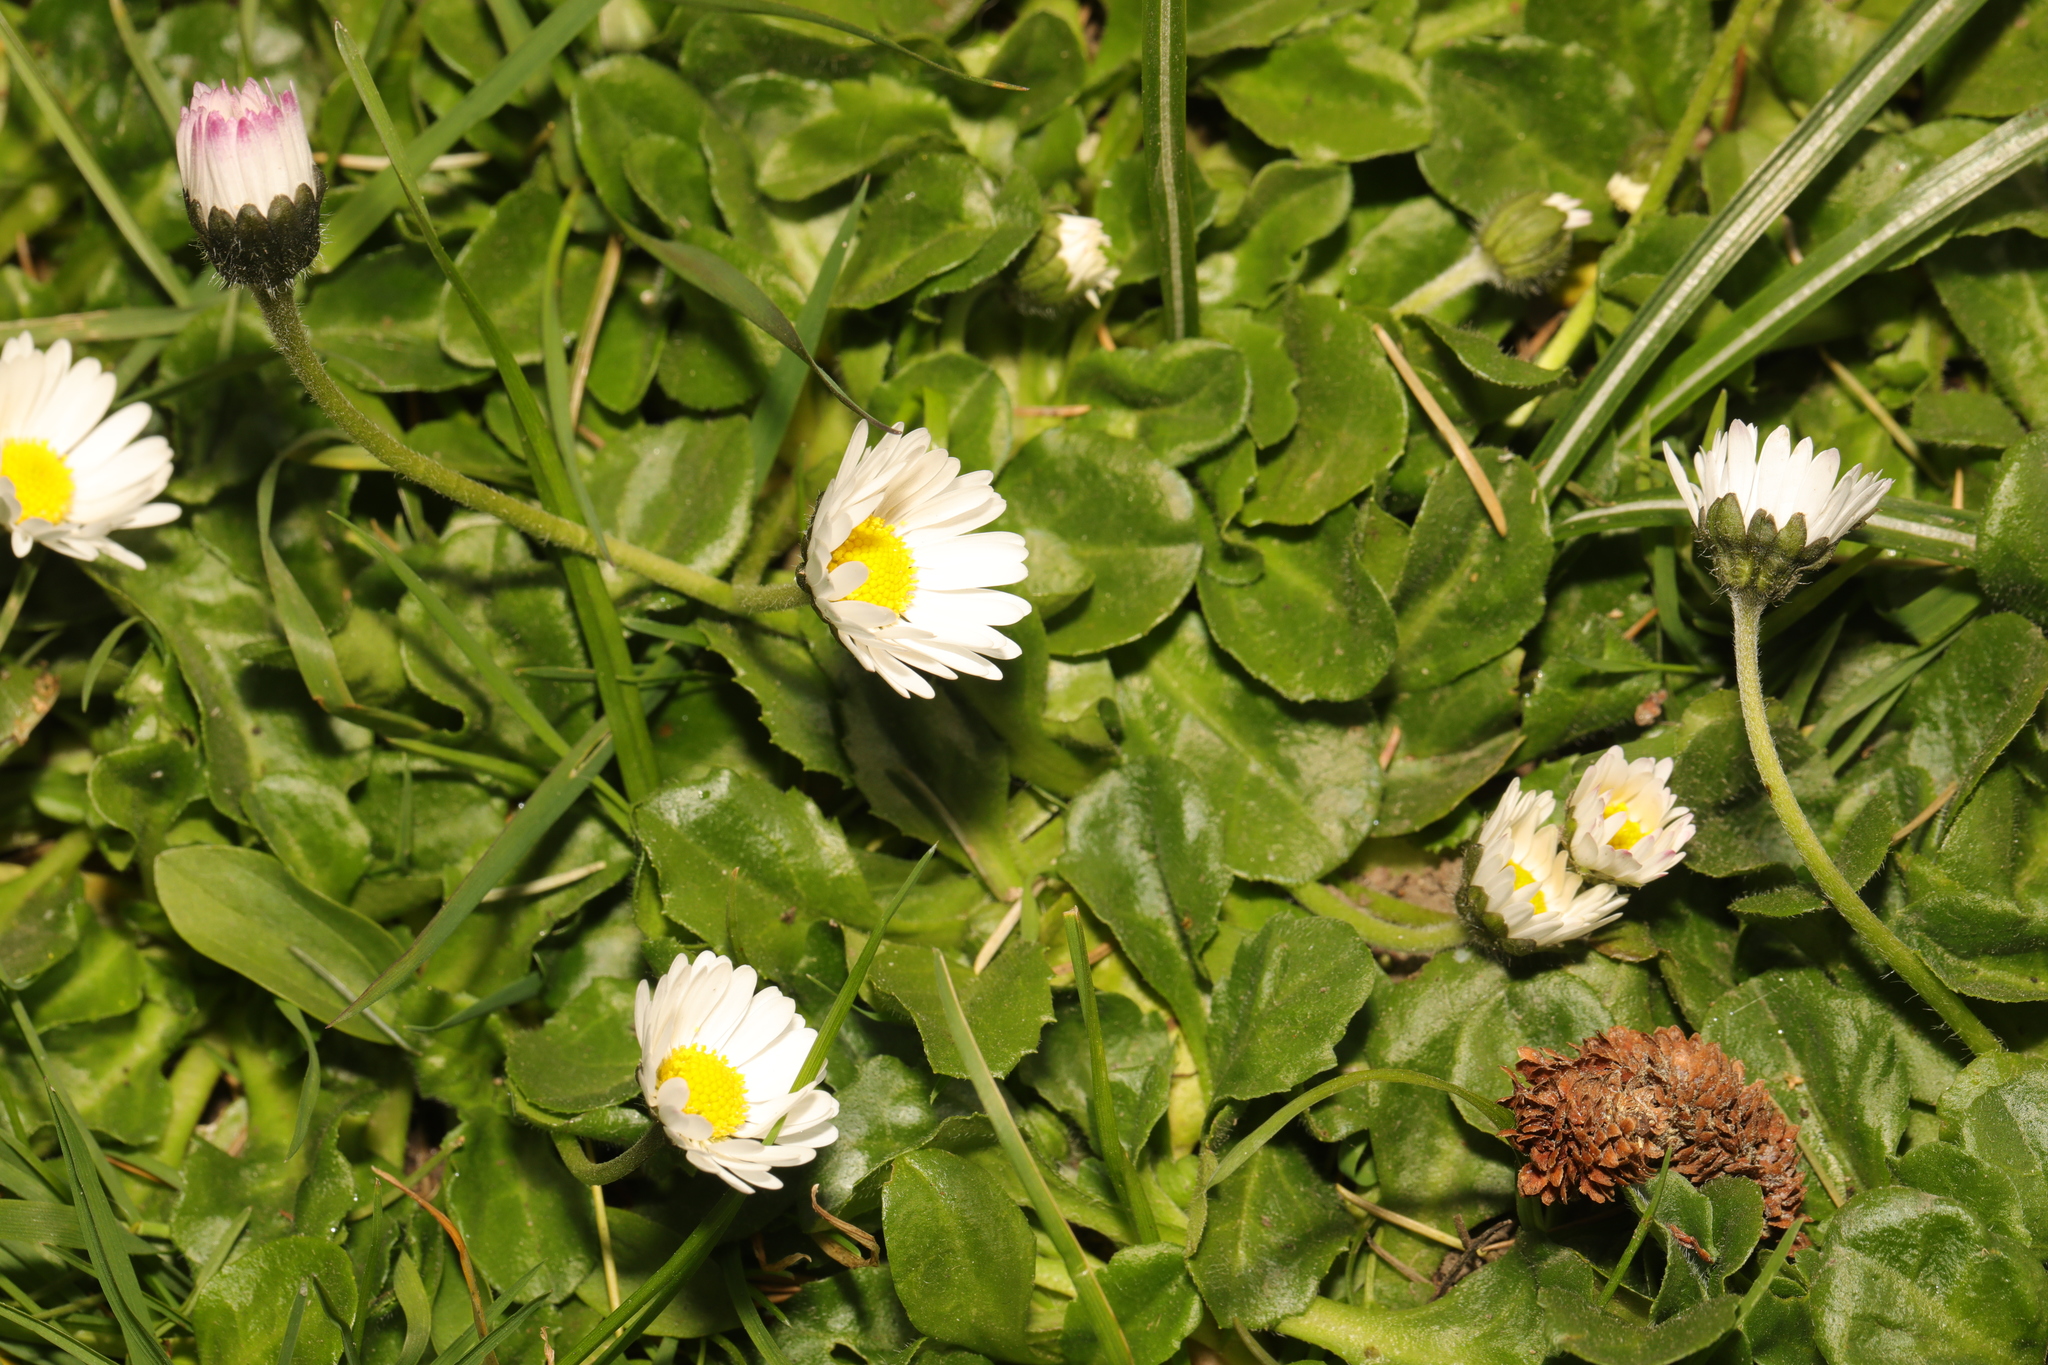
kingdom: Plantae
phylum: Tracheophyta
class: Magnoliopsida
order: Asterales
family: Asteraceae
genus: Bellis
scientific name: Bellis perennis
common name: Lawndaisy
